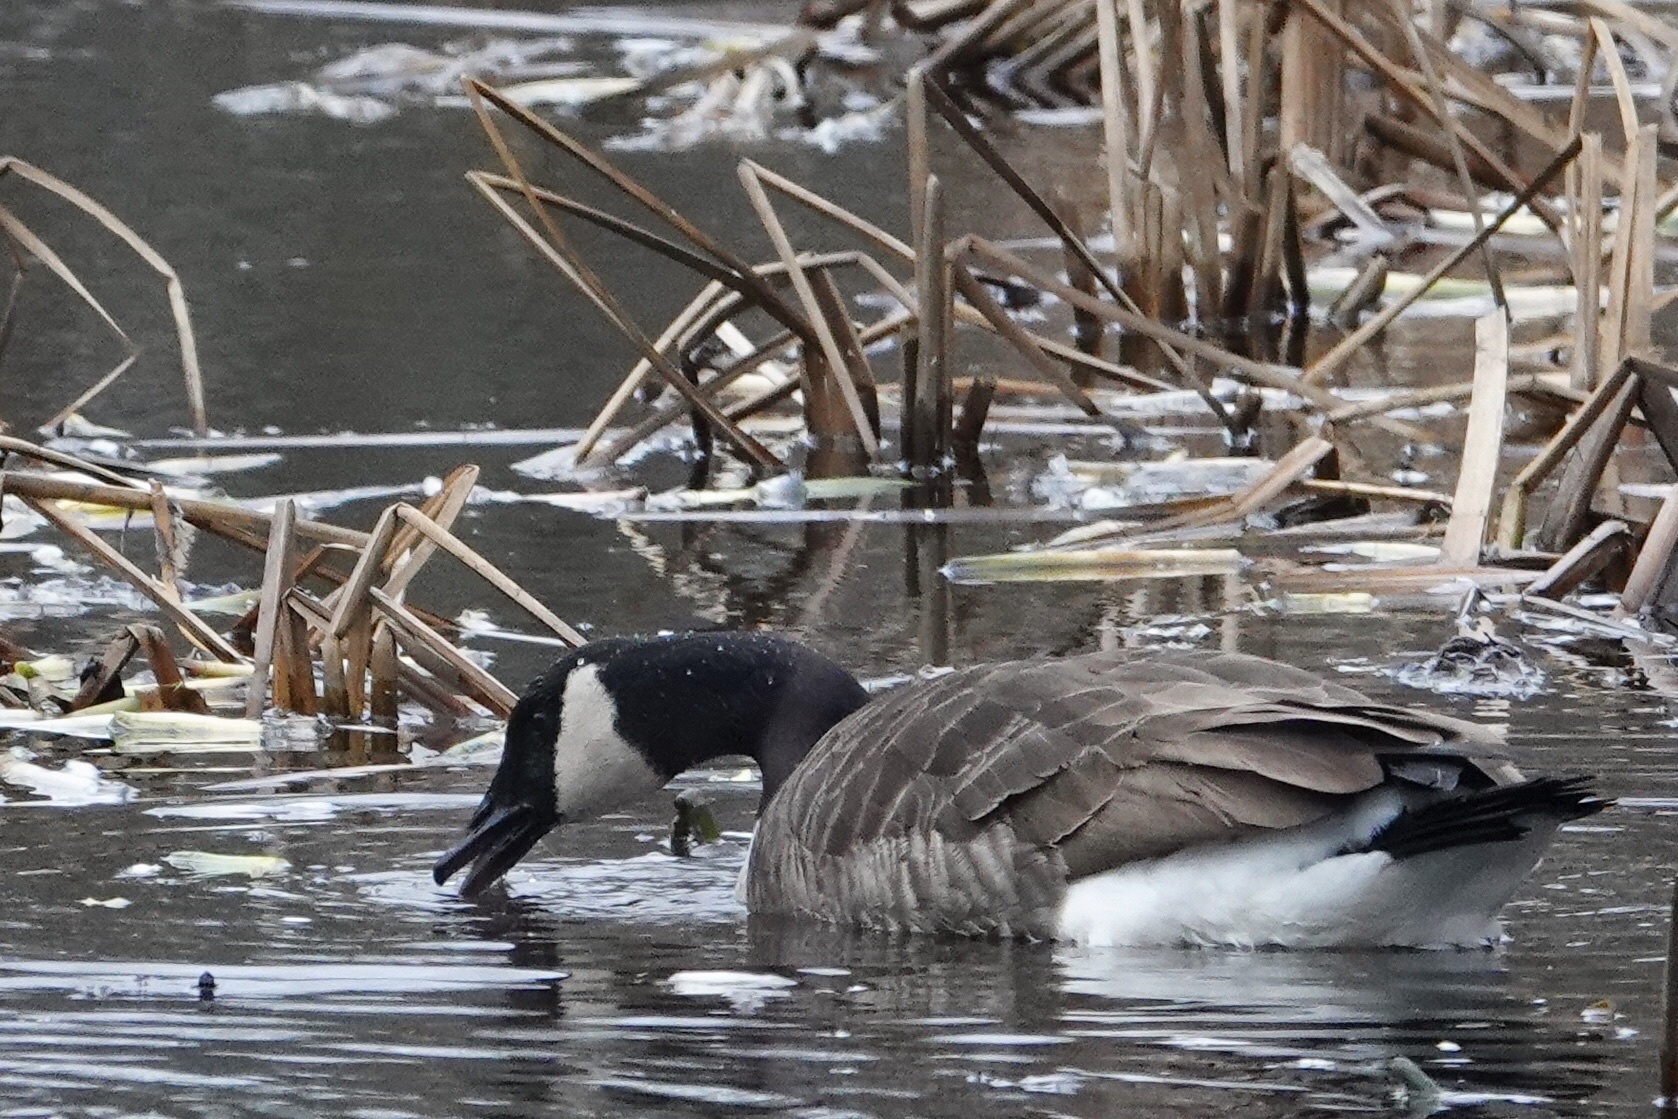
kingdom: Animalia
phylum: Chordata
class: Aves
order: Anseriformes
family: Anatidae
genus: Branta
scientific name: Branta canadensis
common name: Canada goose
